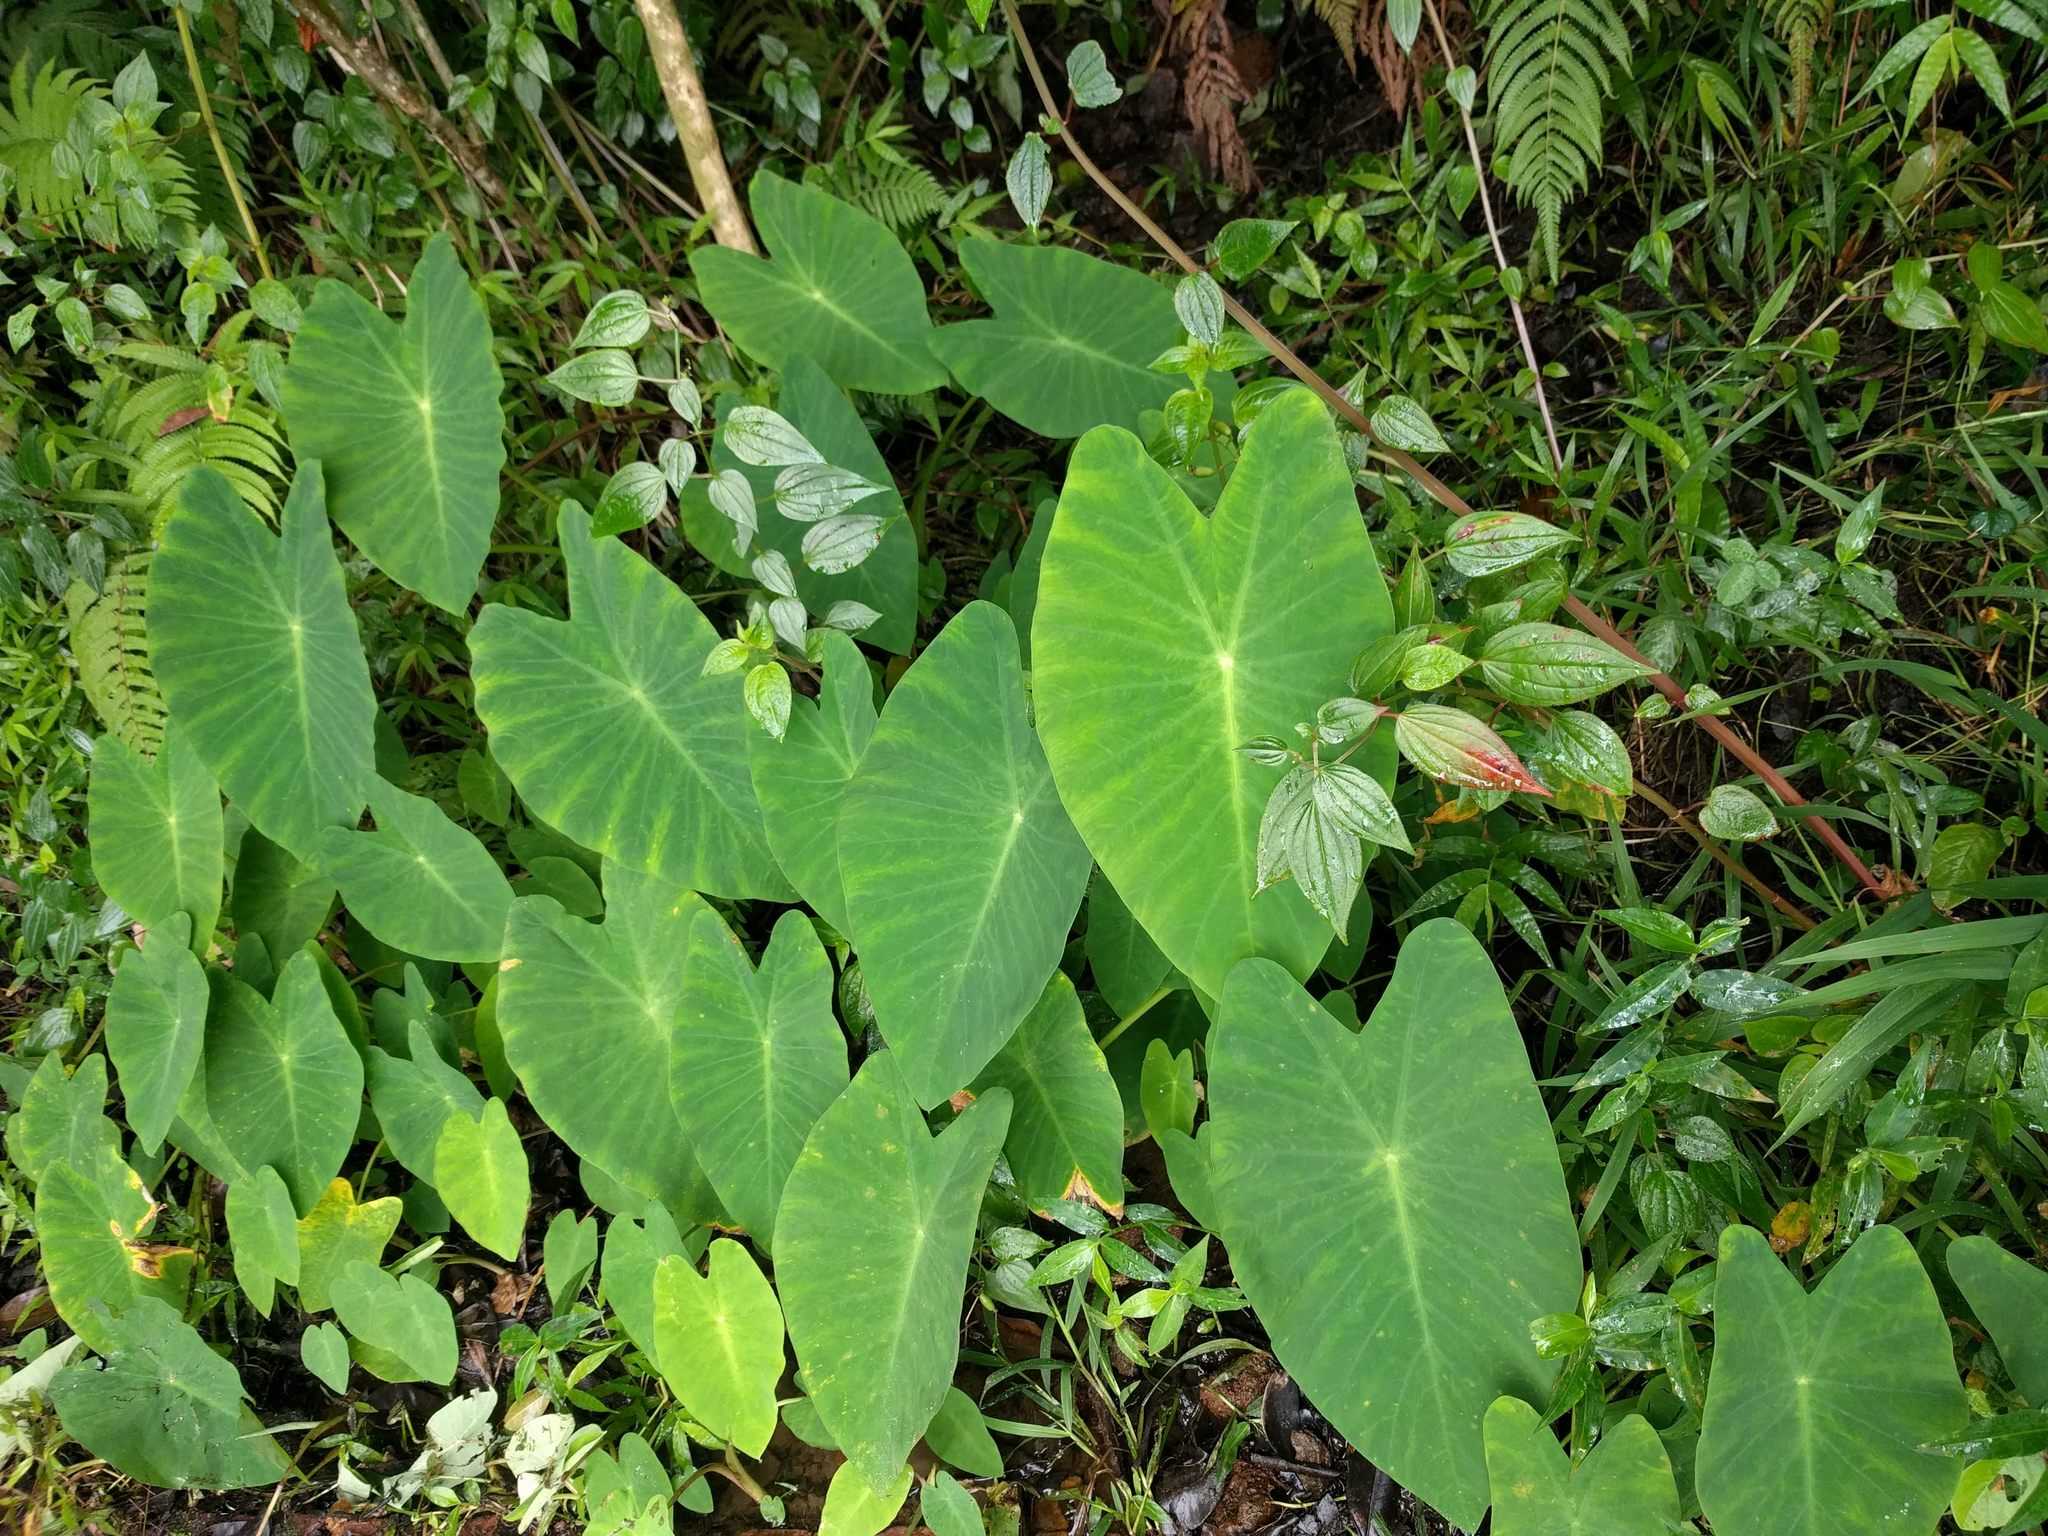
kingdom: Plantae
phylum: Tracheophyta
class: Liliopsida
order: Alismatales
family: Araceae
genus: Colocasia
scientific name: Colocasia esculenta
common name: Taro
